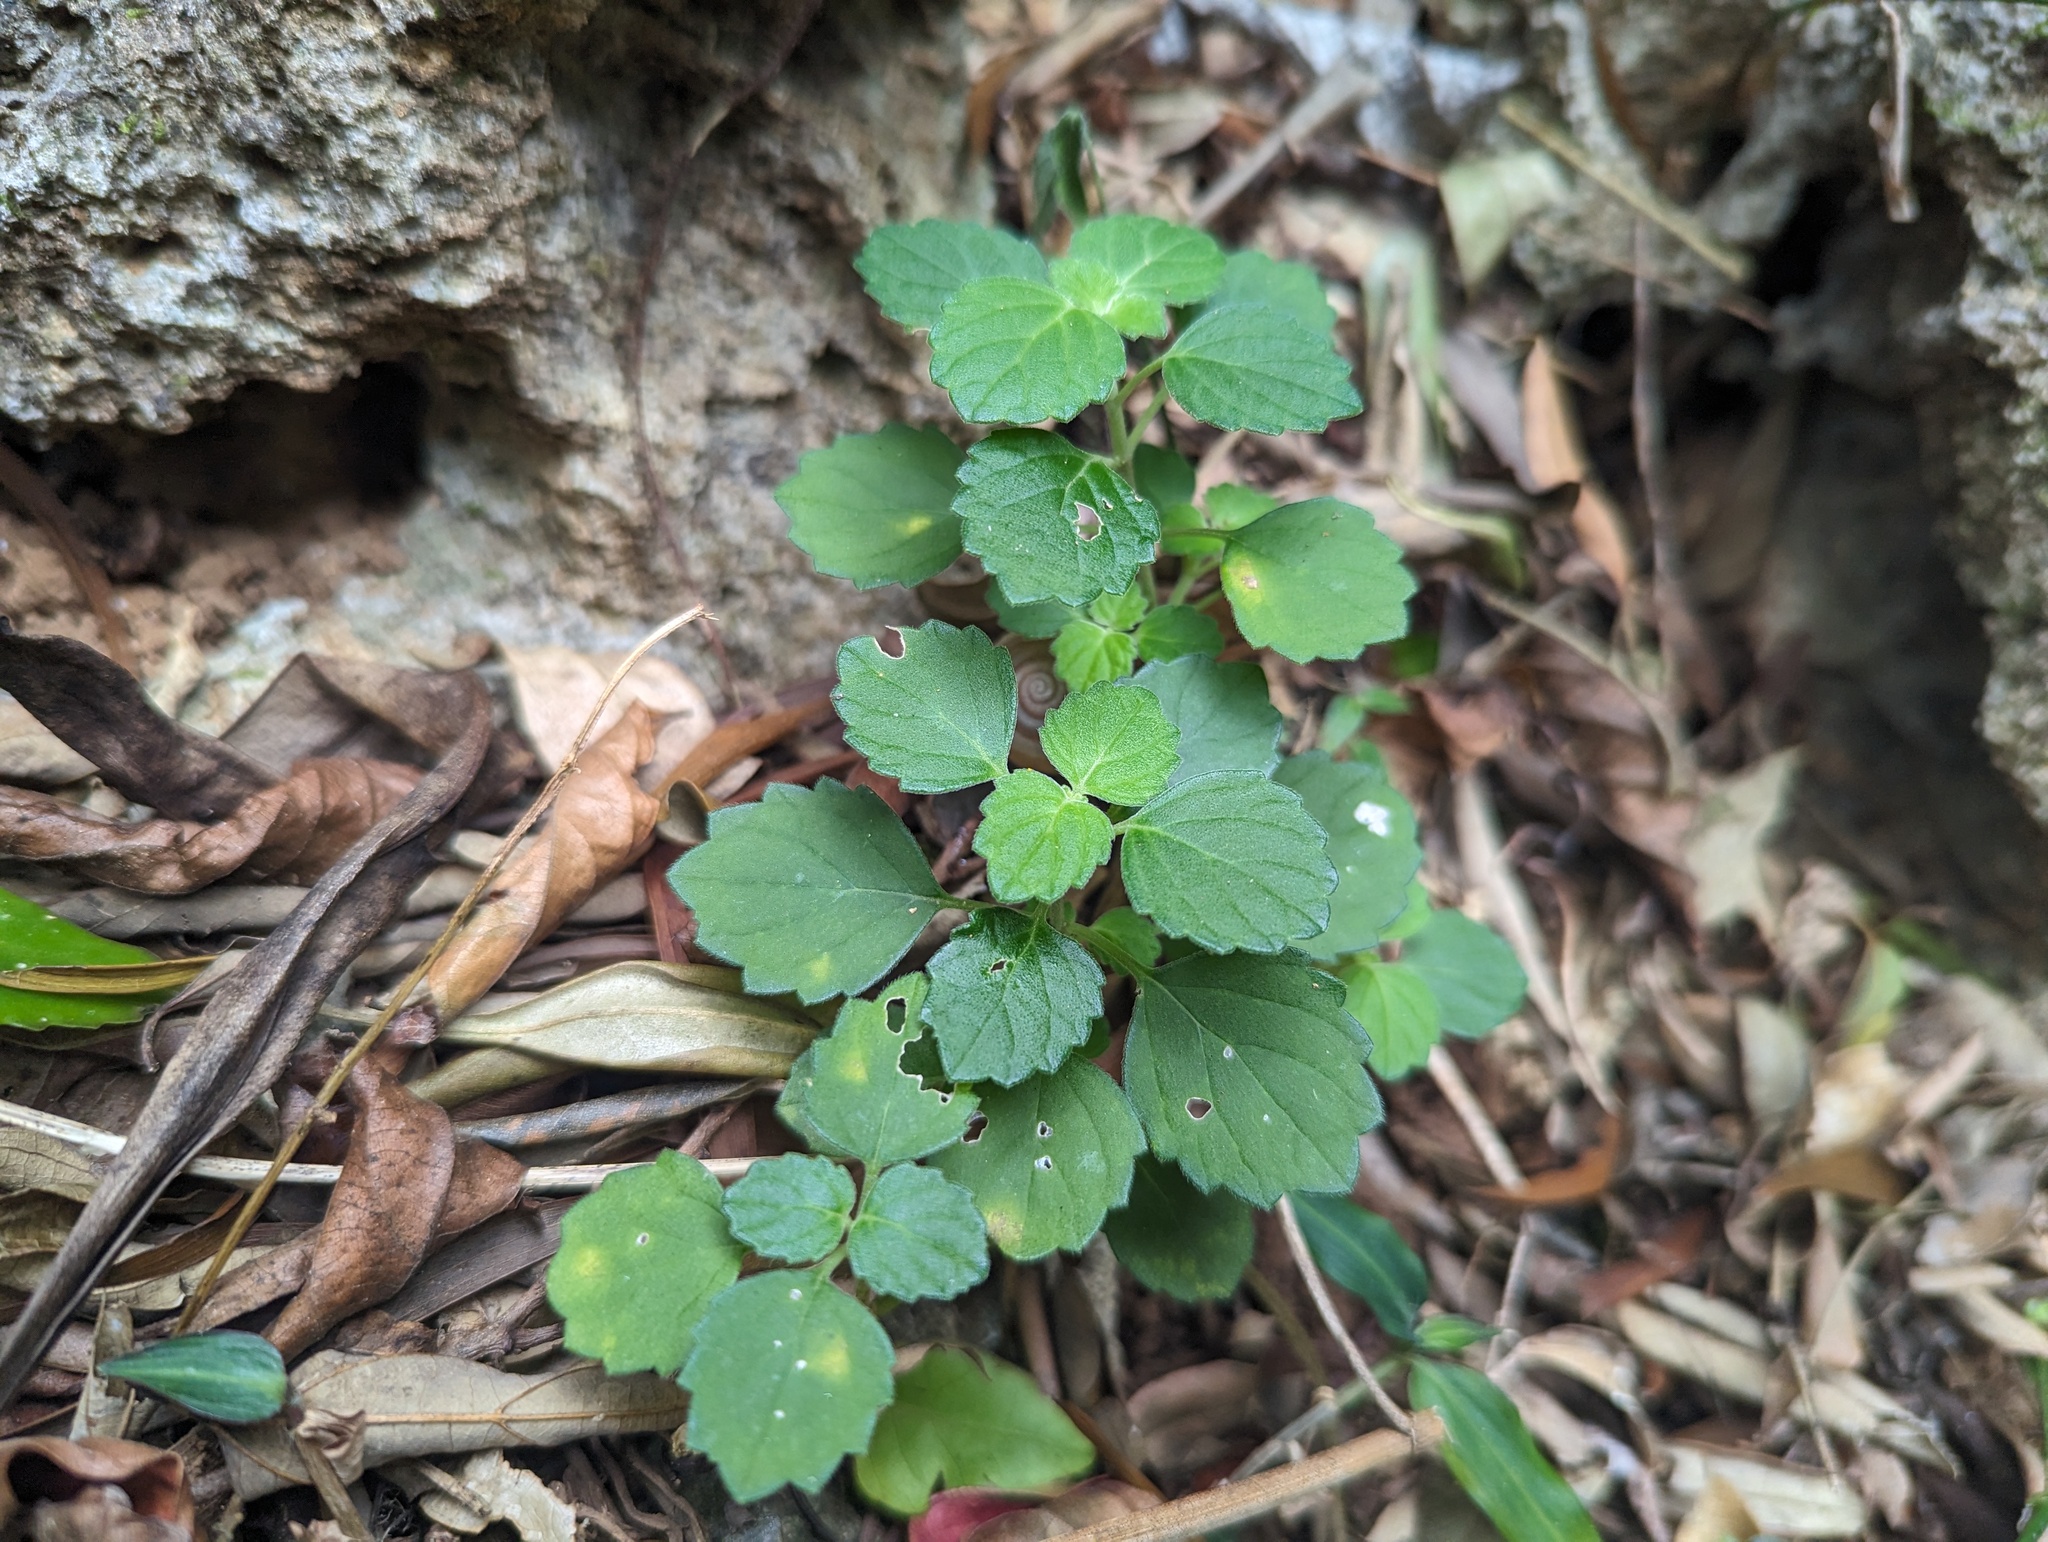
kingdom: Plantae
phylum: Tracheophyta
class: Magnoliopsida
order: Lamiales
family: Lamiaceae
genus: Leucas
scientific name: Leucas chinensis
